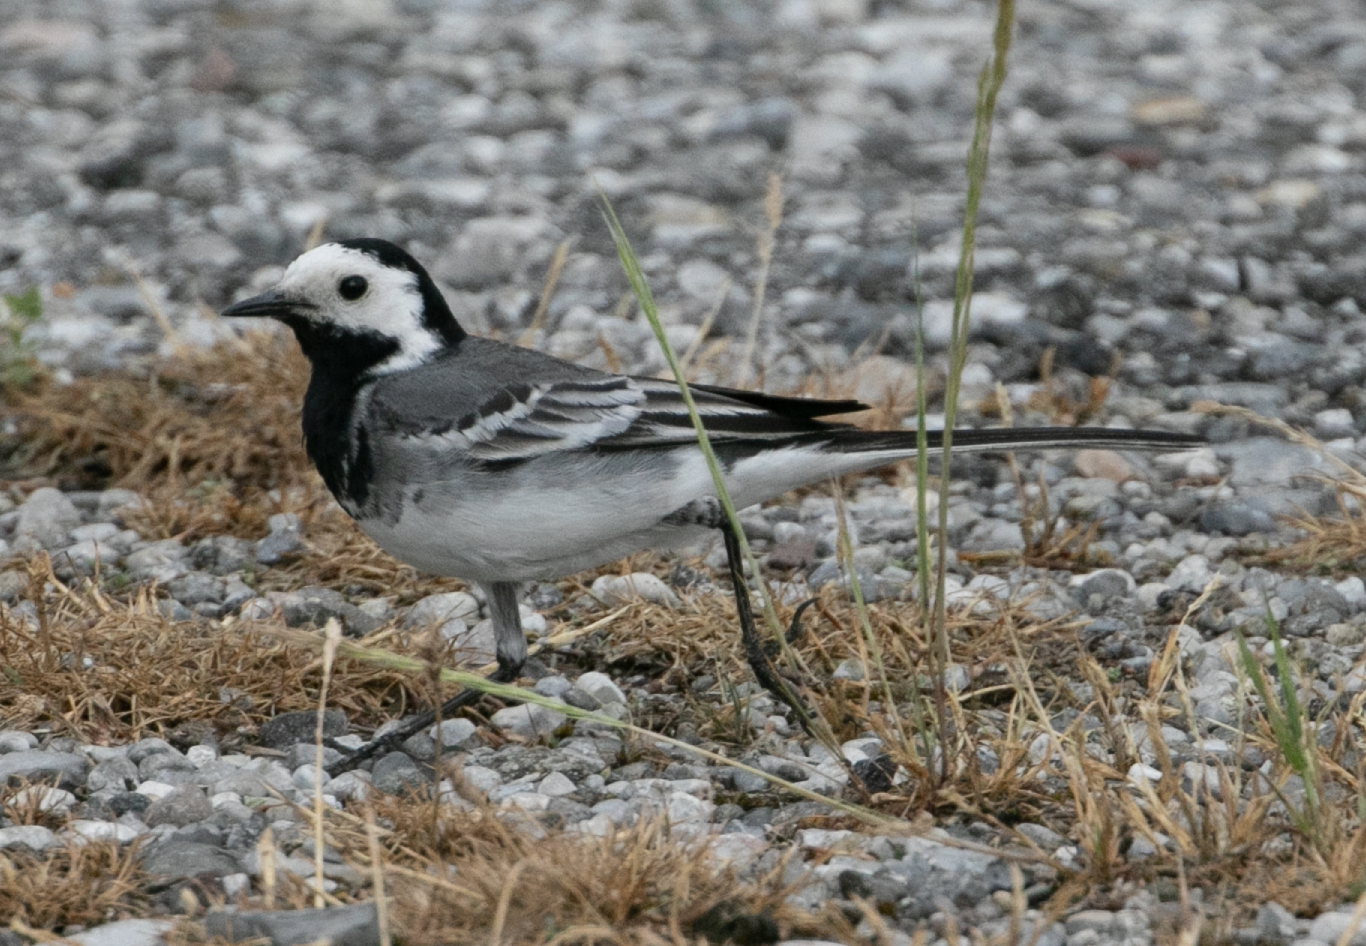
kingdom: Animalia
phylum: Chordata
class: Aves
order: Passeriformes
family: Motacillidae
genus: Motacilla
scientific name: Motacilla alba
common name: White wagtail
